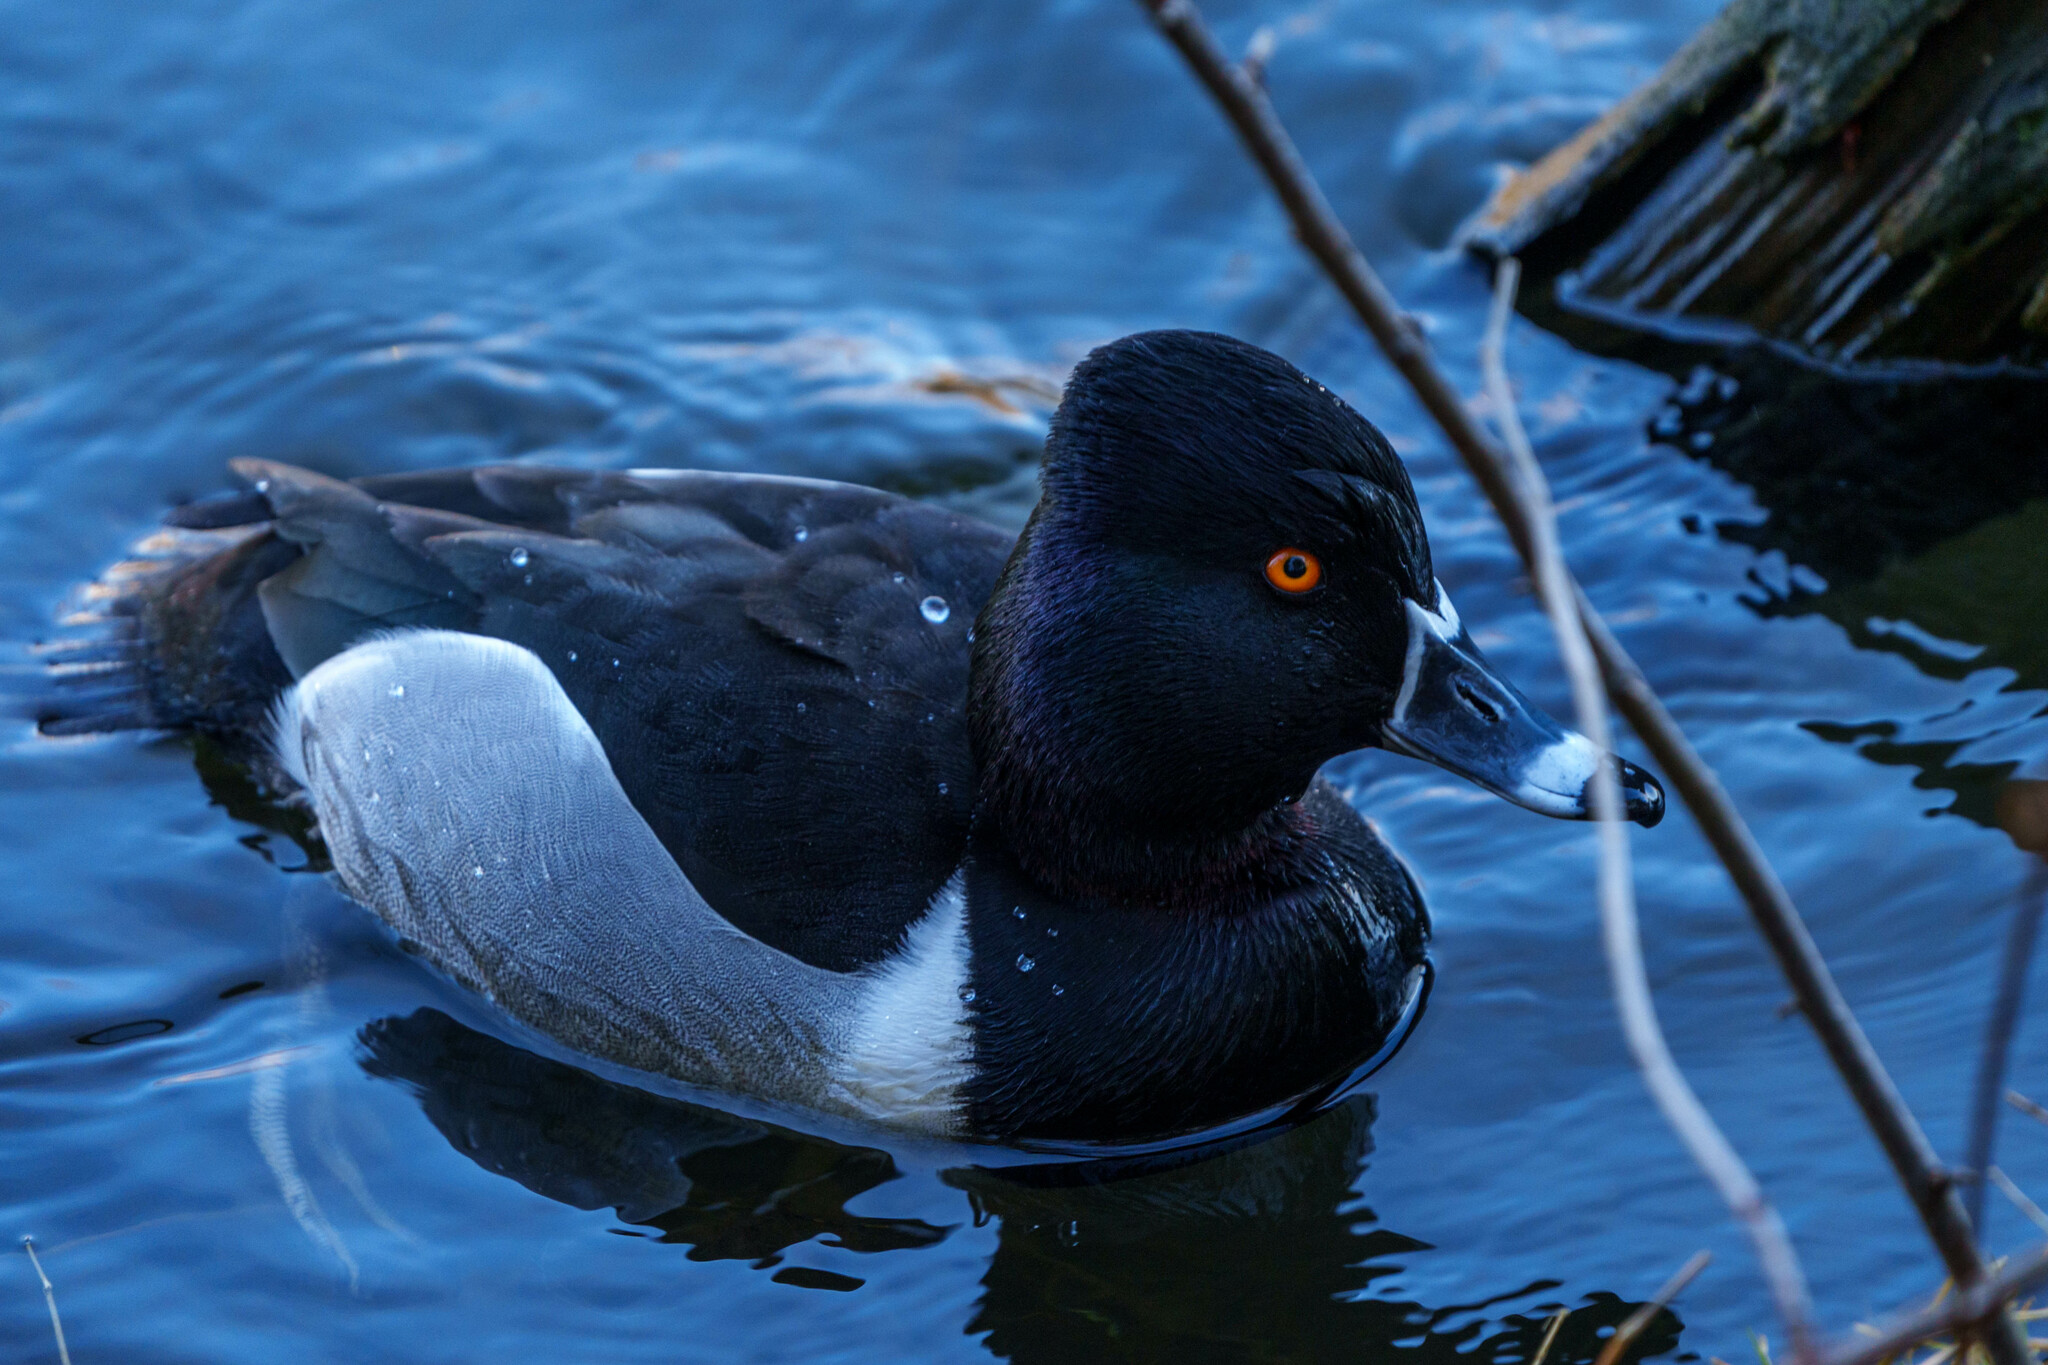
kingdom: Animalia
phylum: Chordata
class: Aves
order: Anseriformes
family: Anatidae
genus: Aythya
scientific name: Aythya collaris
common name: Ring-necked duck
